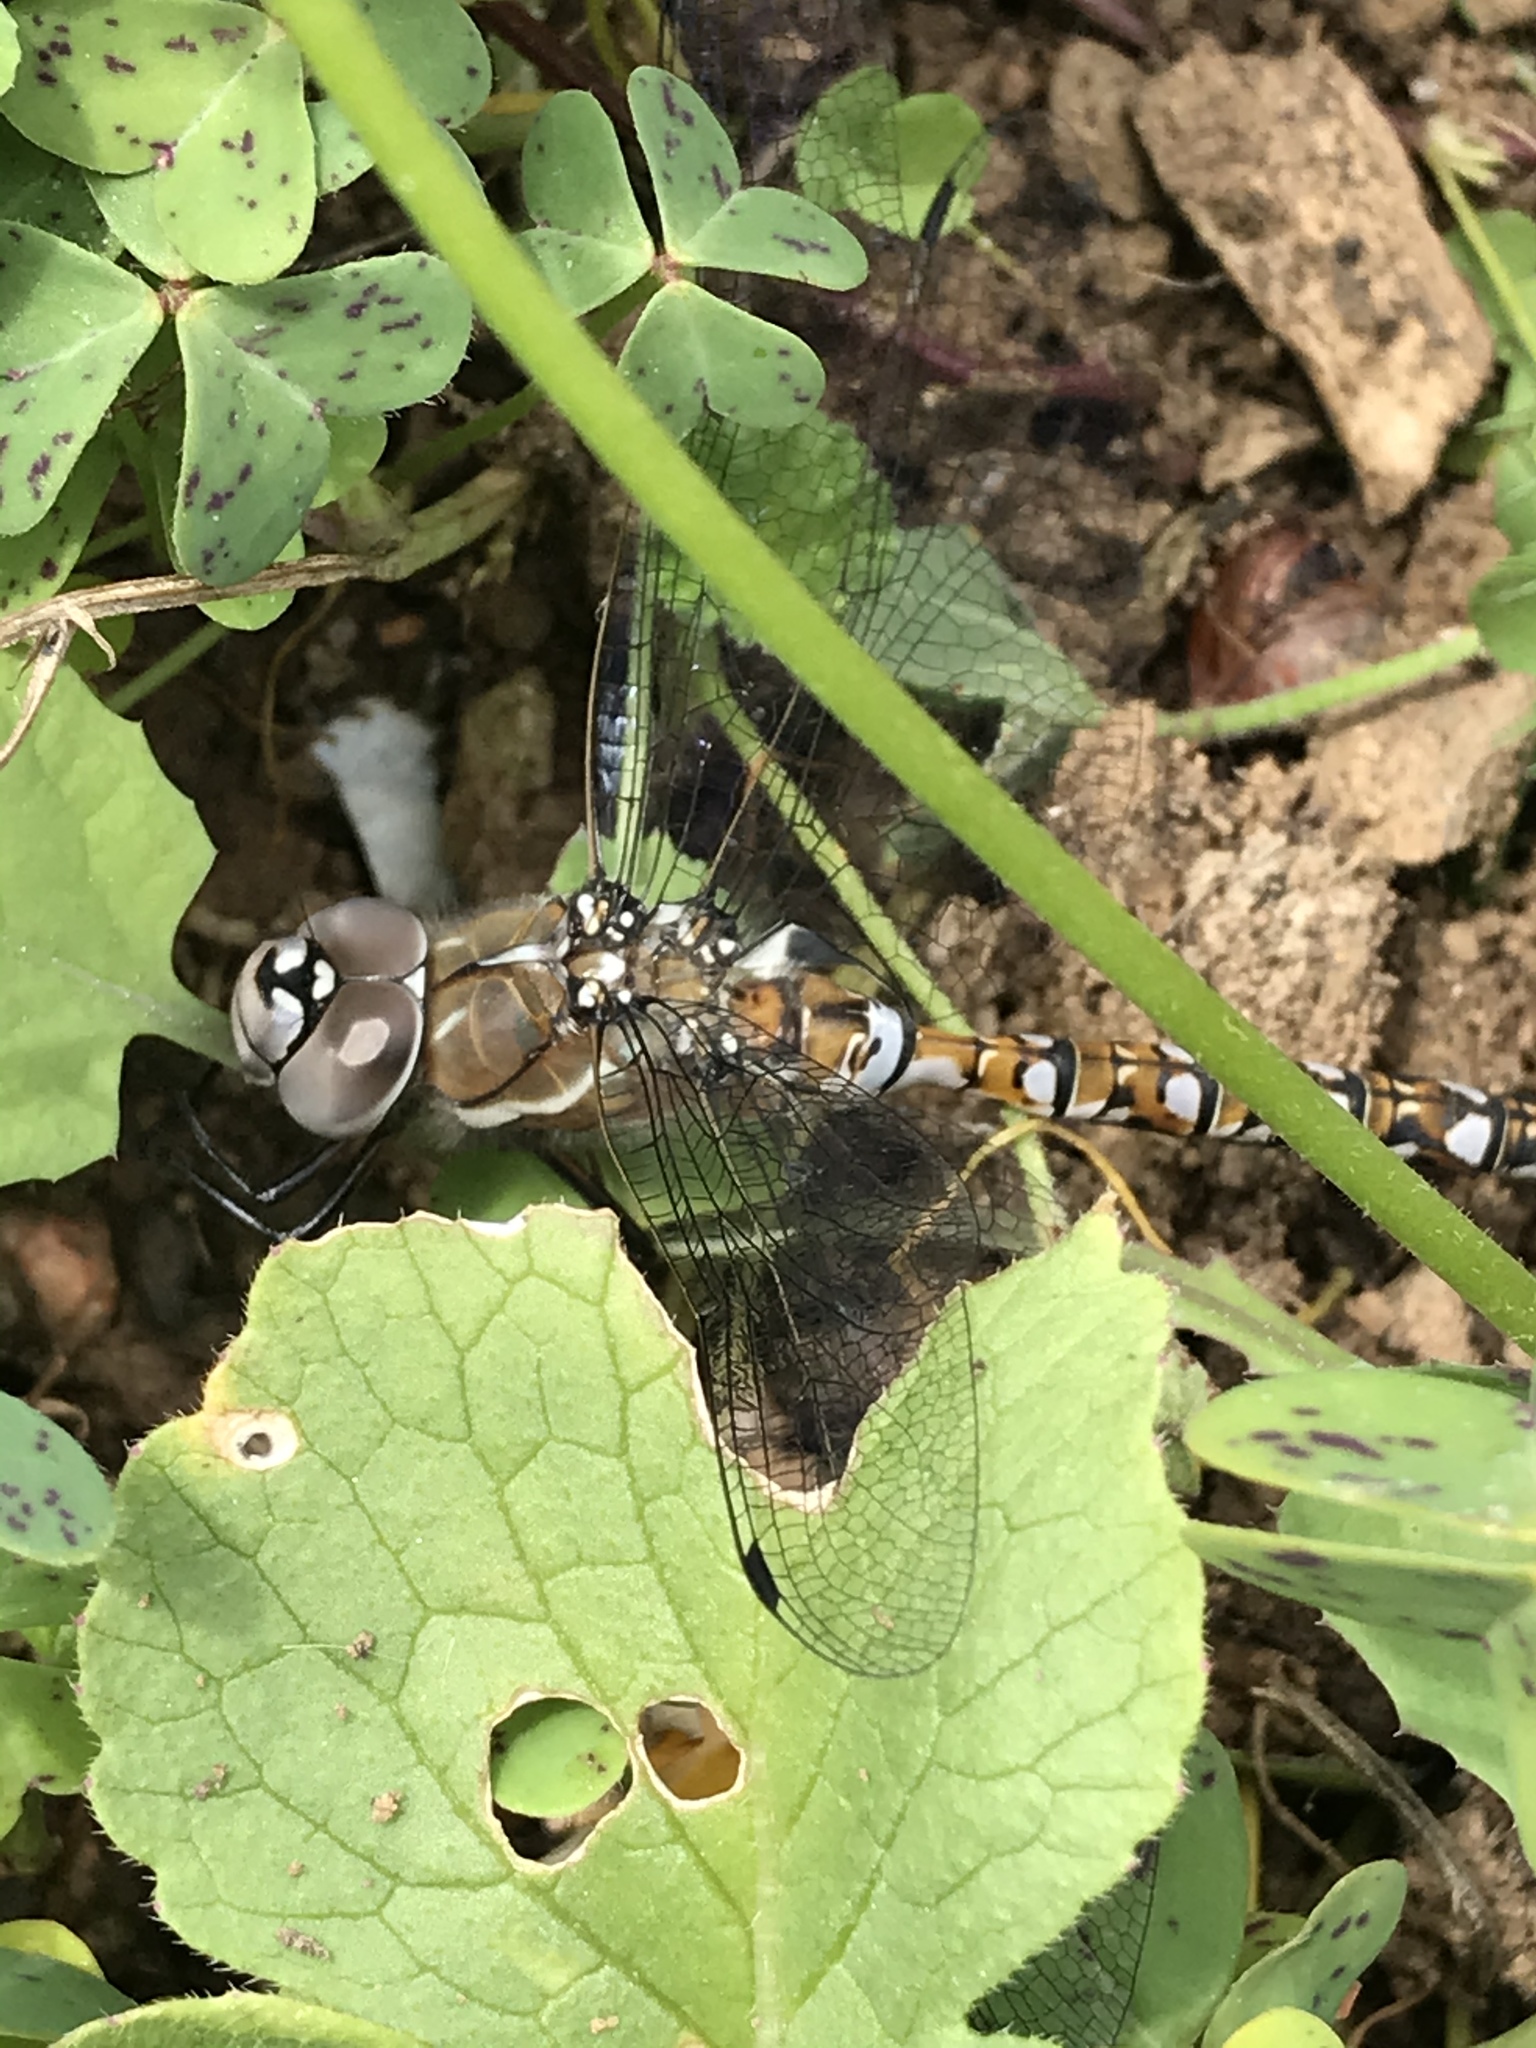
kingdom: Animalia
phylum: Arthropoda
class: Insecta
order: Odonata
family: Aeshnidae
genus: Rhionaeschna
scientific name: Rhionaeschna californica
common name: California darner
